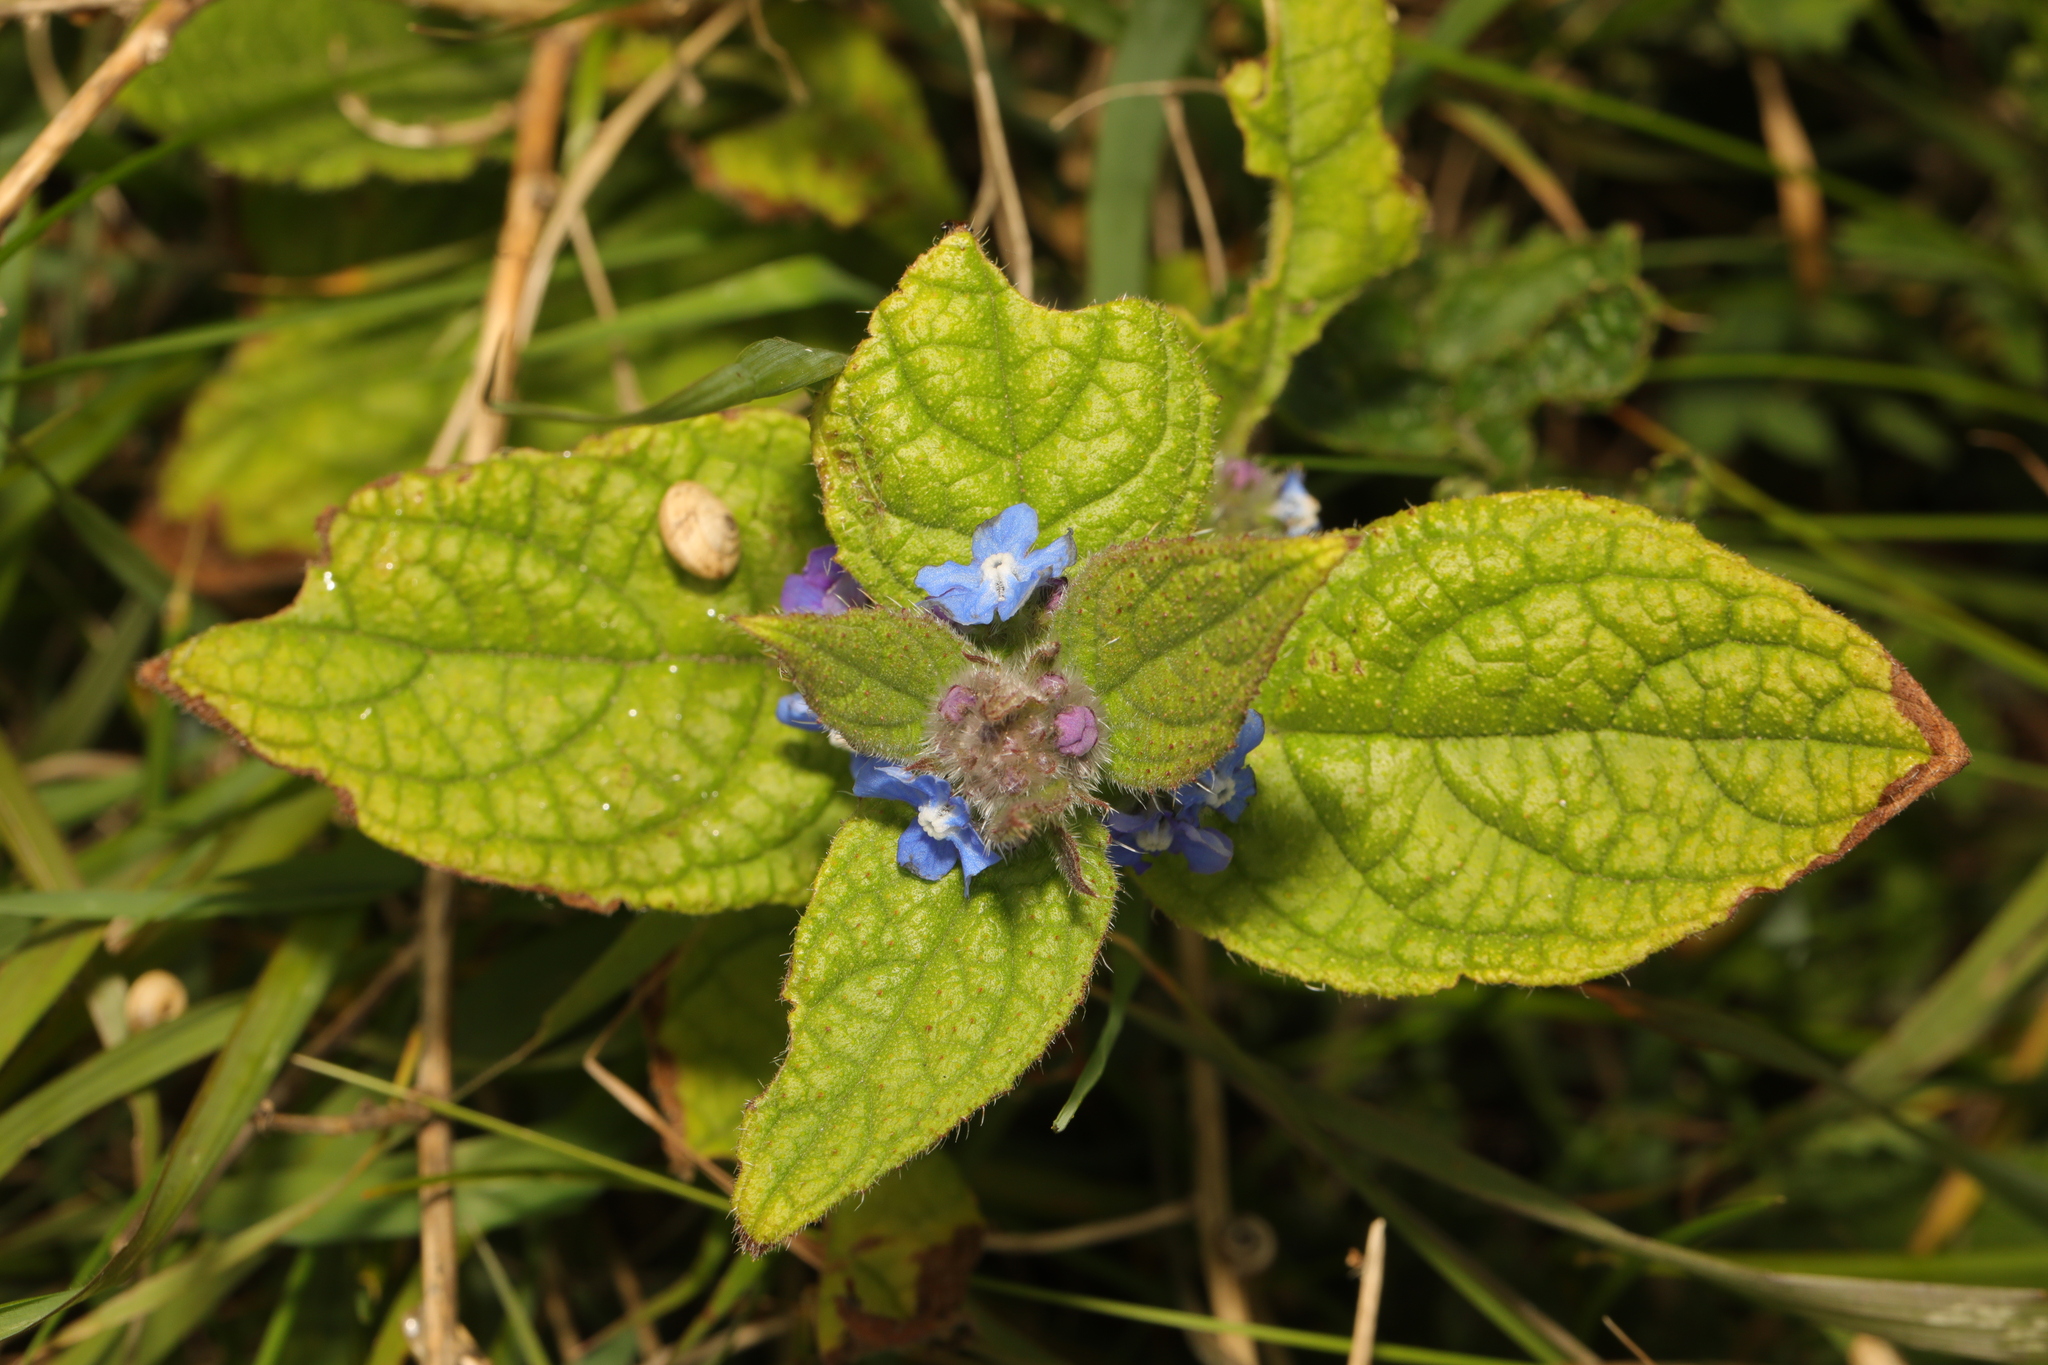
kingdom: Plantae
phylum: Tracheophyta
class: Magnoliopsida
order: Boraginales
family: Boraginaceae
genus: Pentaglottis
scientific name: Pentaglottis sempervirens
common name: Green alkanet
